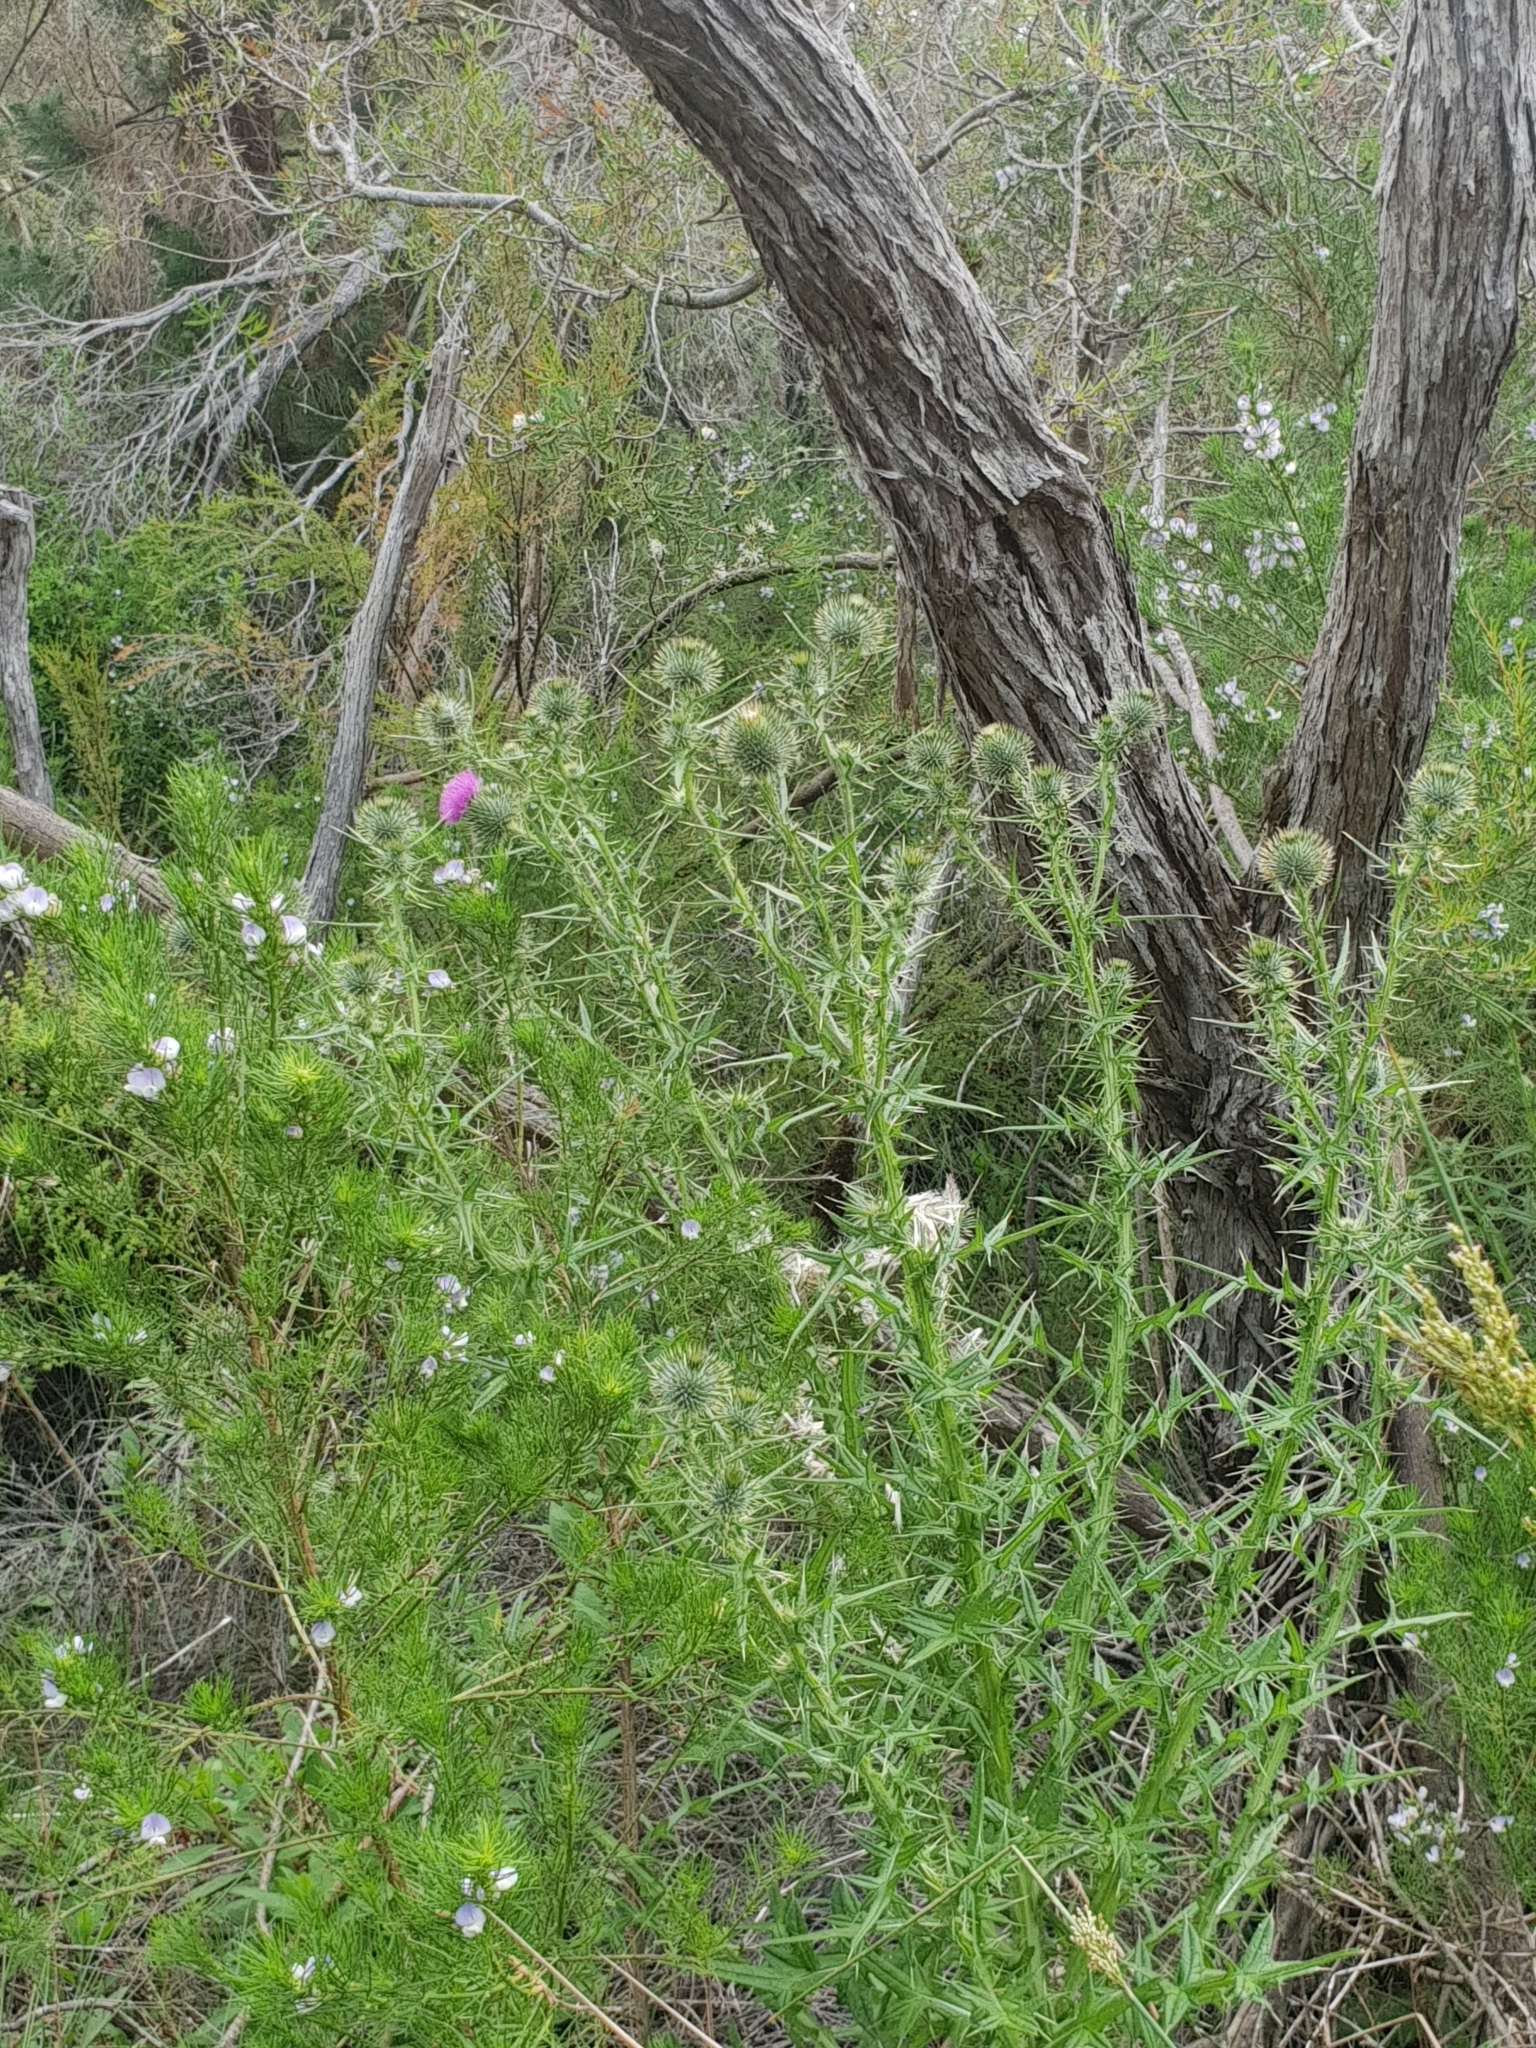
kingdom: Plantae
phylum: Tracheophyta
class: Magnoliopsida
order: Asterales
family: Asteraceae
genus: Cirsium
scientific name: Cirsium vulgare
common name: Bull thistle
